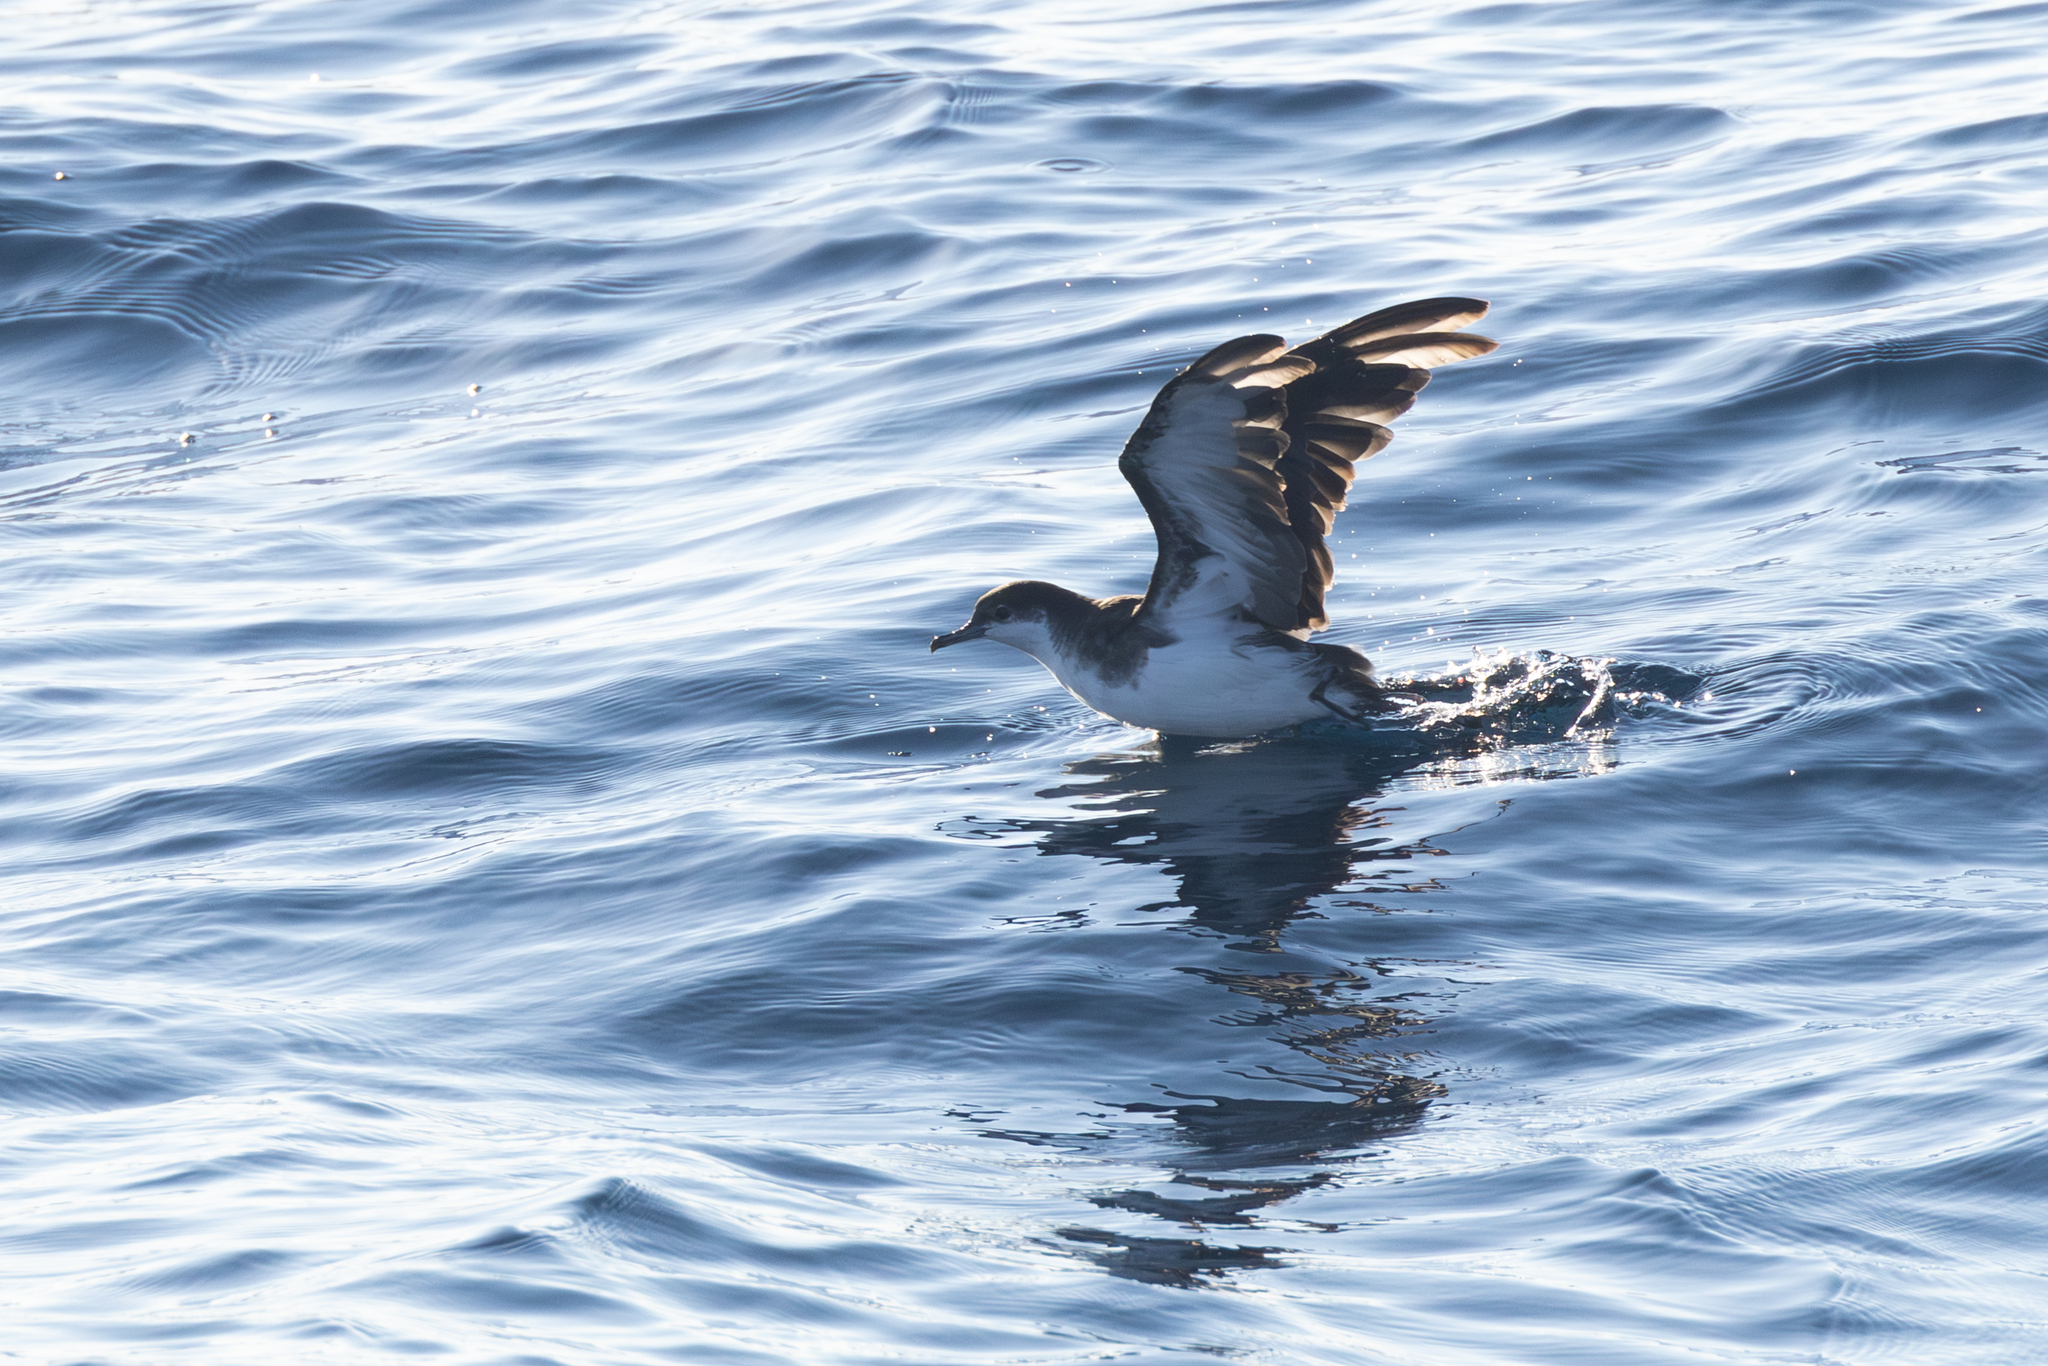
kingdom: Animalia
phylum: Chordata
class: Aves
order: Procellariiformes
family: Procellariidae
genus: Puffinus
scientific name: Puffinus lherminieri
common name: Audubon's shearwater
